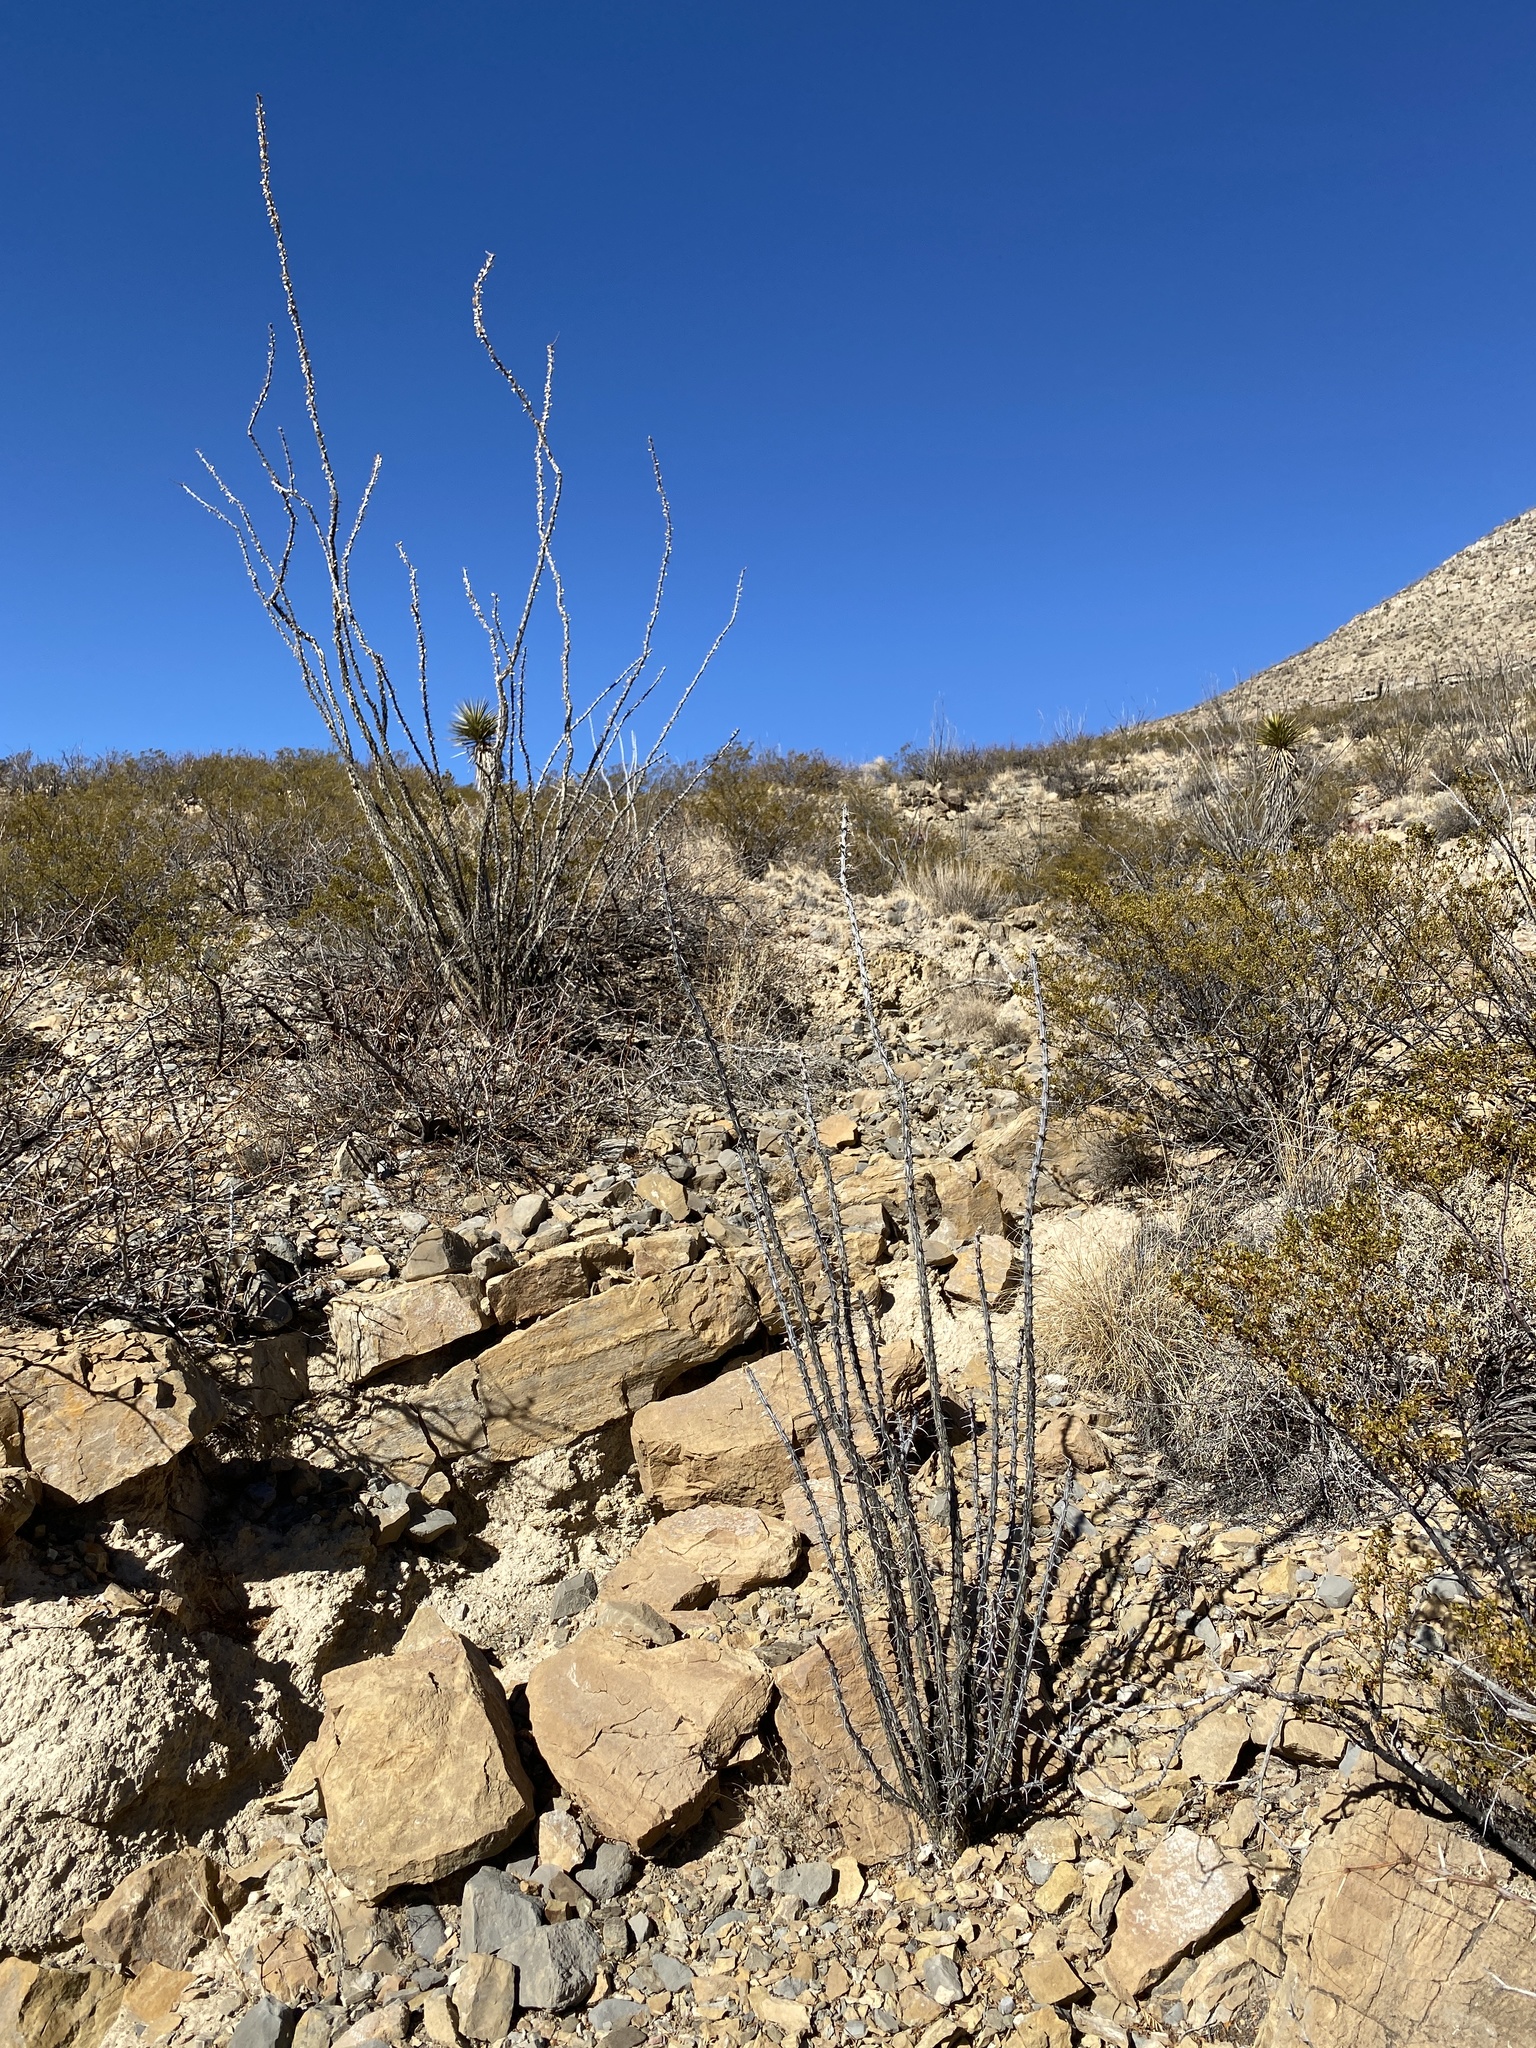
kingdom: Plantae
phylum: Tracheophyta
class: Magnoliopsida
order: Ericales
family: Fouquieriaceae
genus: Fouquieria
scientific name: Fouquieria splendens
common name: Vine-cactus
